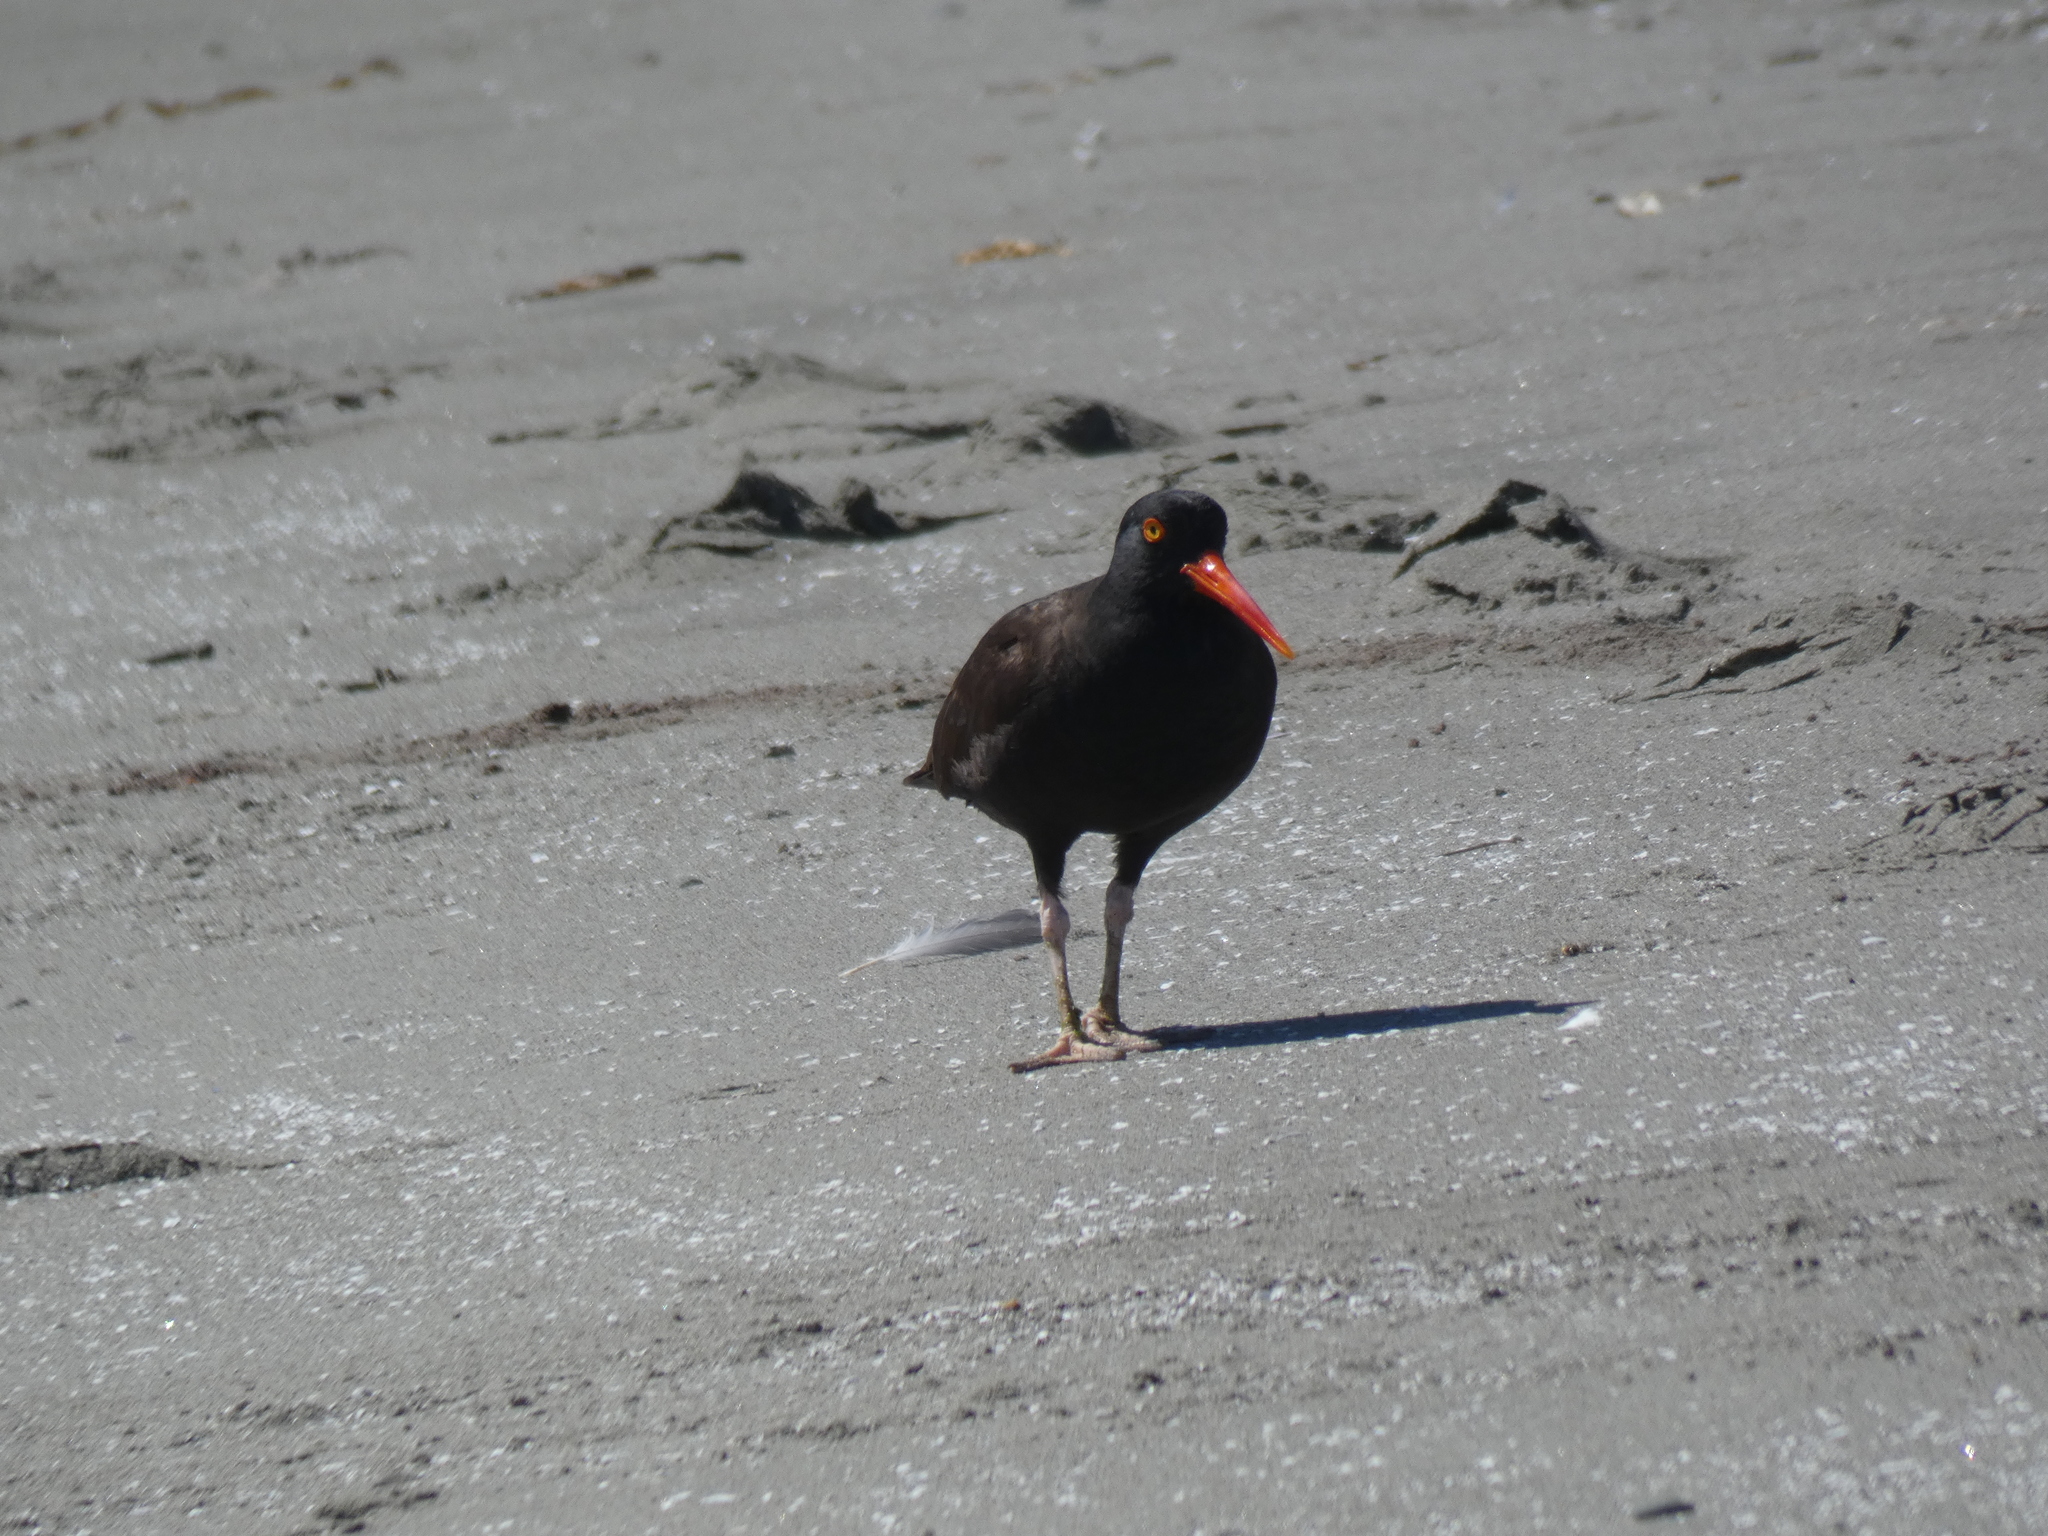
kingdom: Animalia
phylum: Chordata
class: Aves
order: Charadriiformes
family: Haematopodidae
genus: Haematopus
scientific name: Haematopus bachmani
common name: Black oystercatcher
